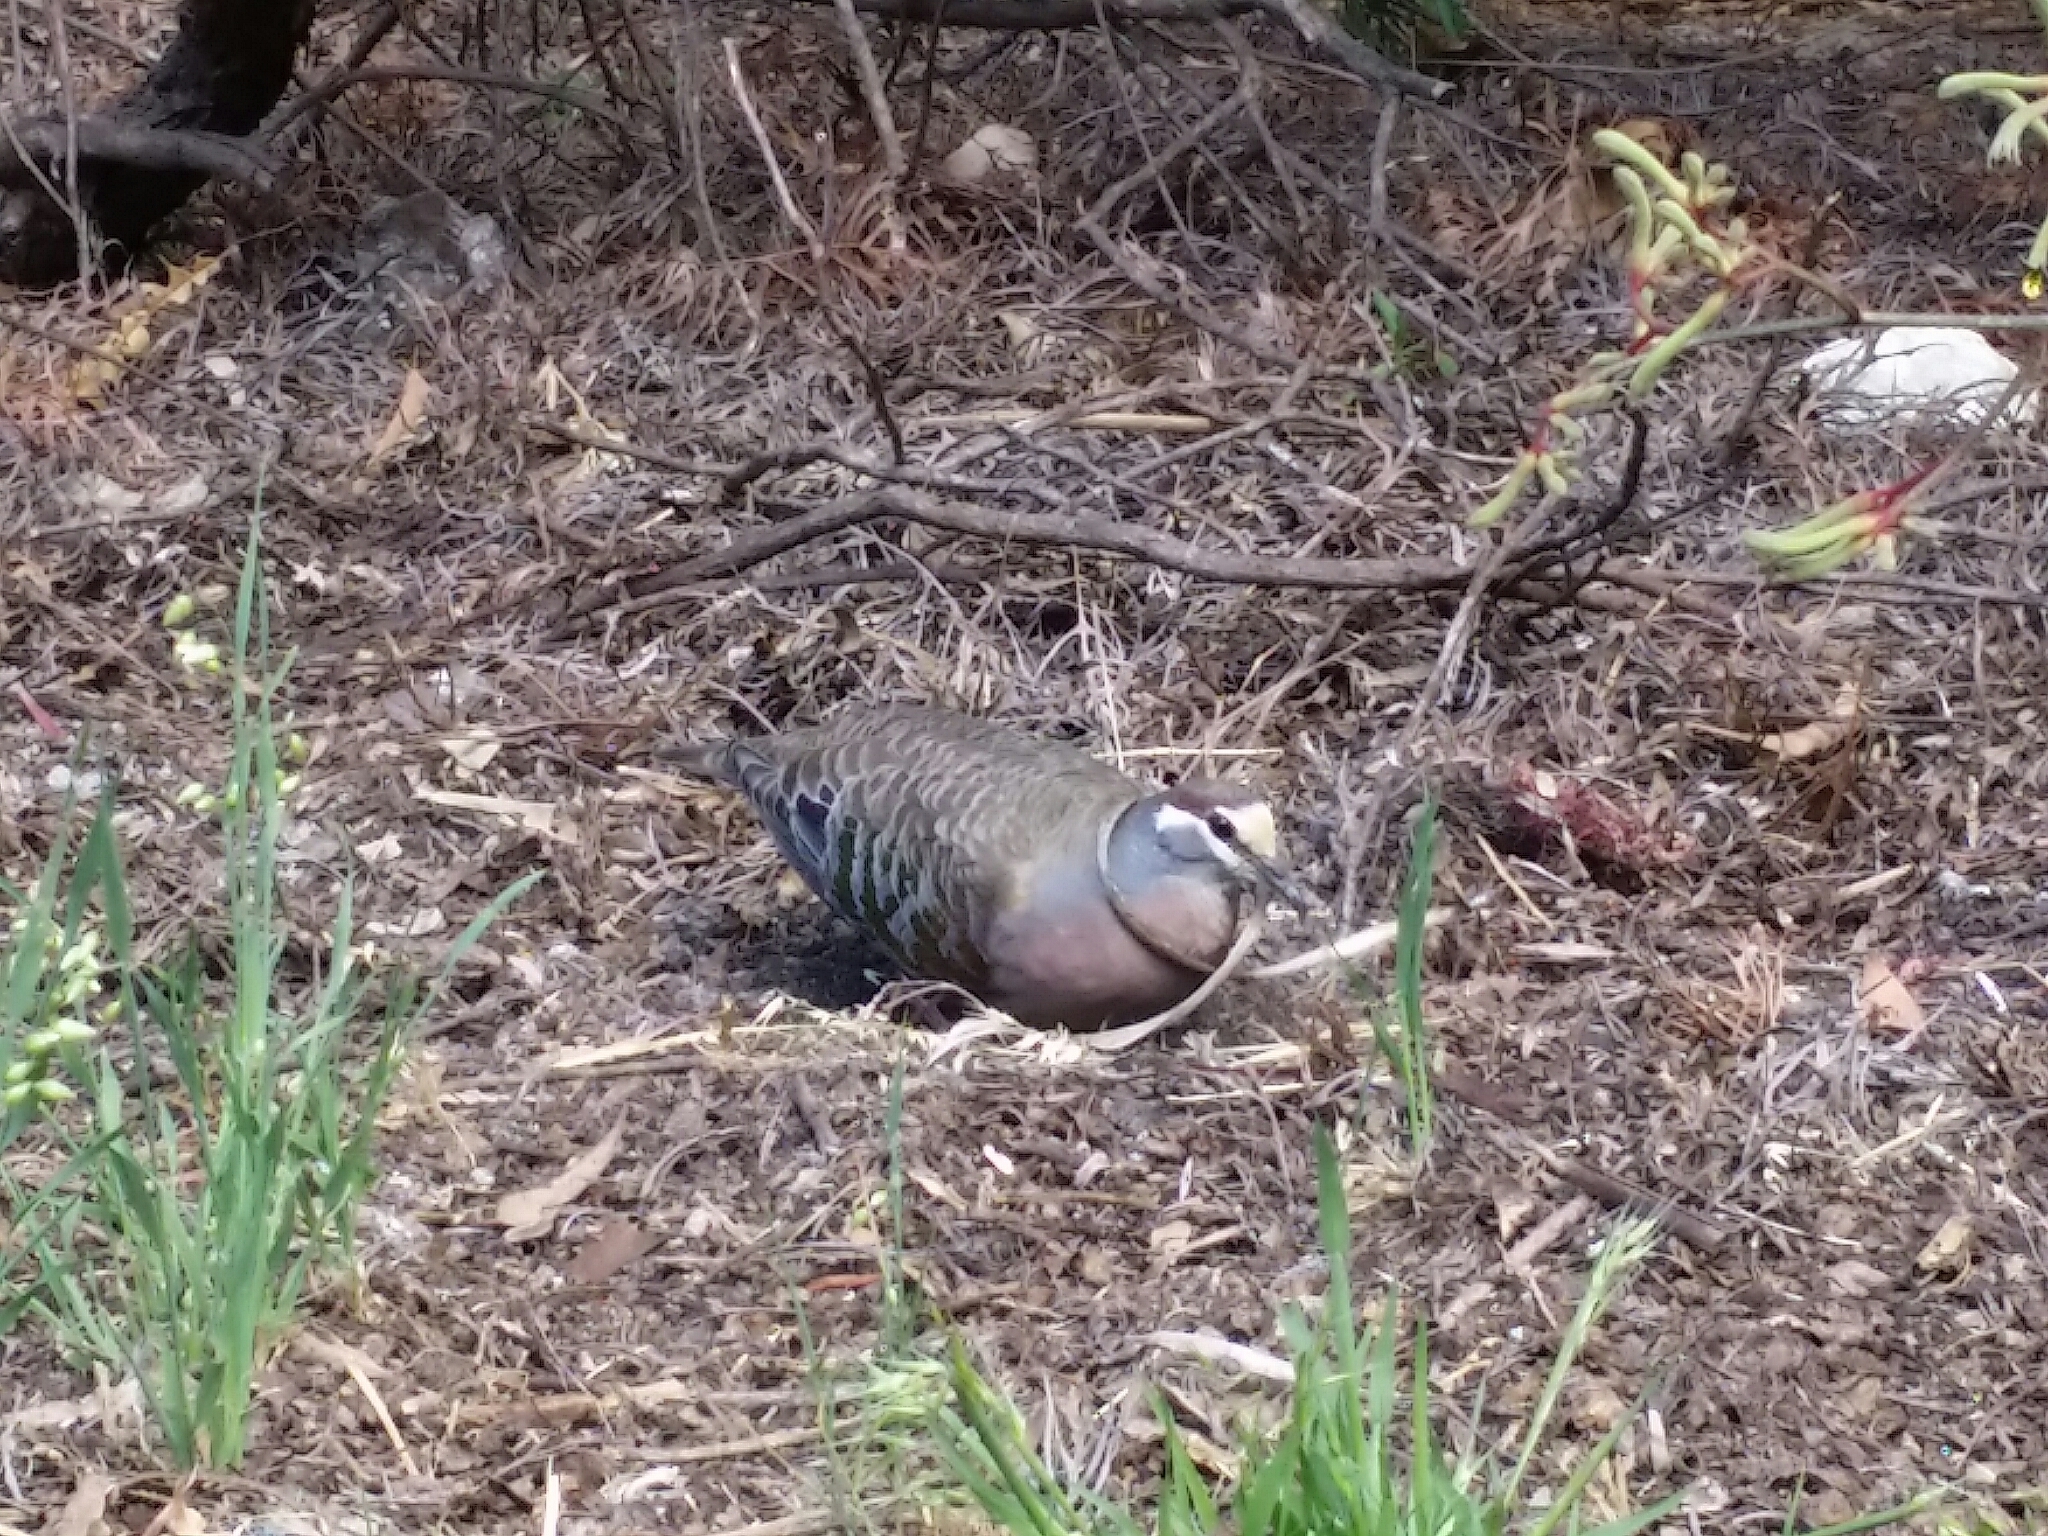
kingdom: Animalia
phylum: Chordata
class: Aves
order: Columbiformes
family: Columbidae
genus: Phaps
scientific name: Phaps chalcoptera
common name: Common bronzewing
